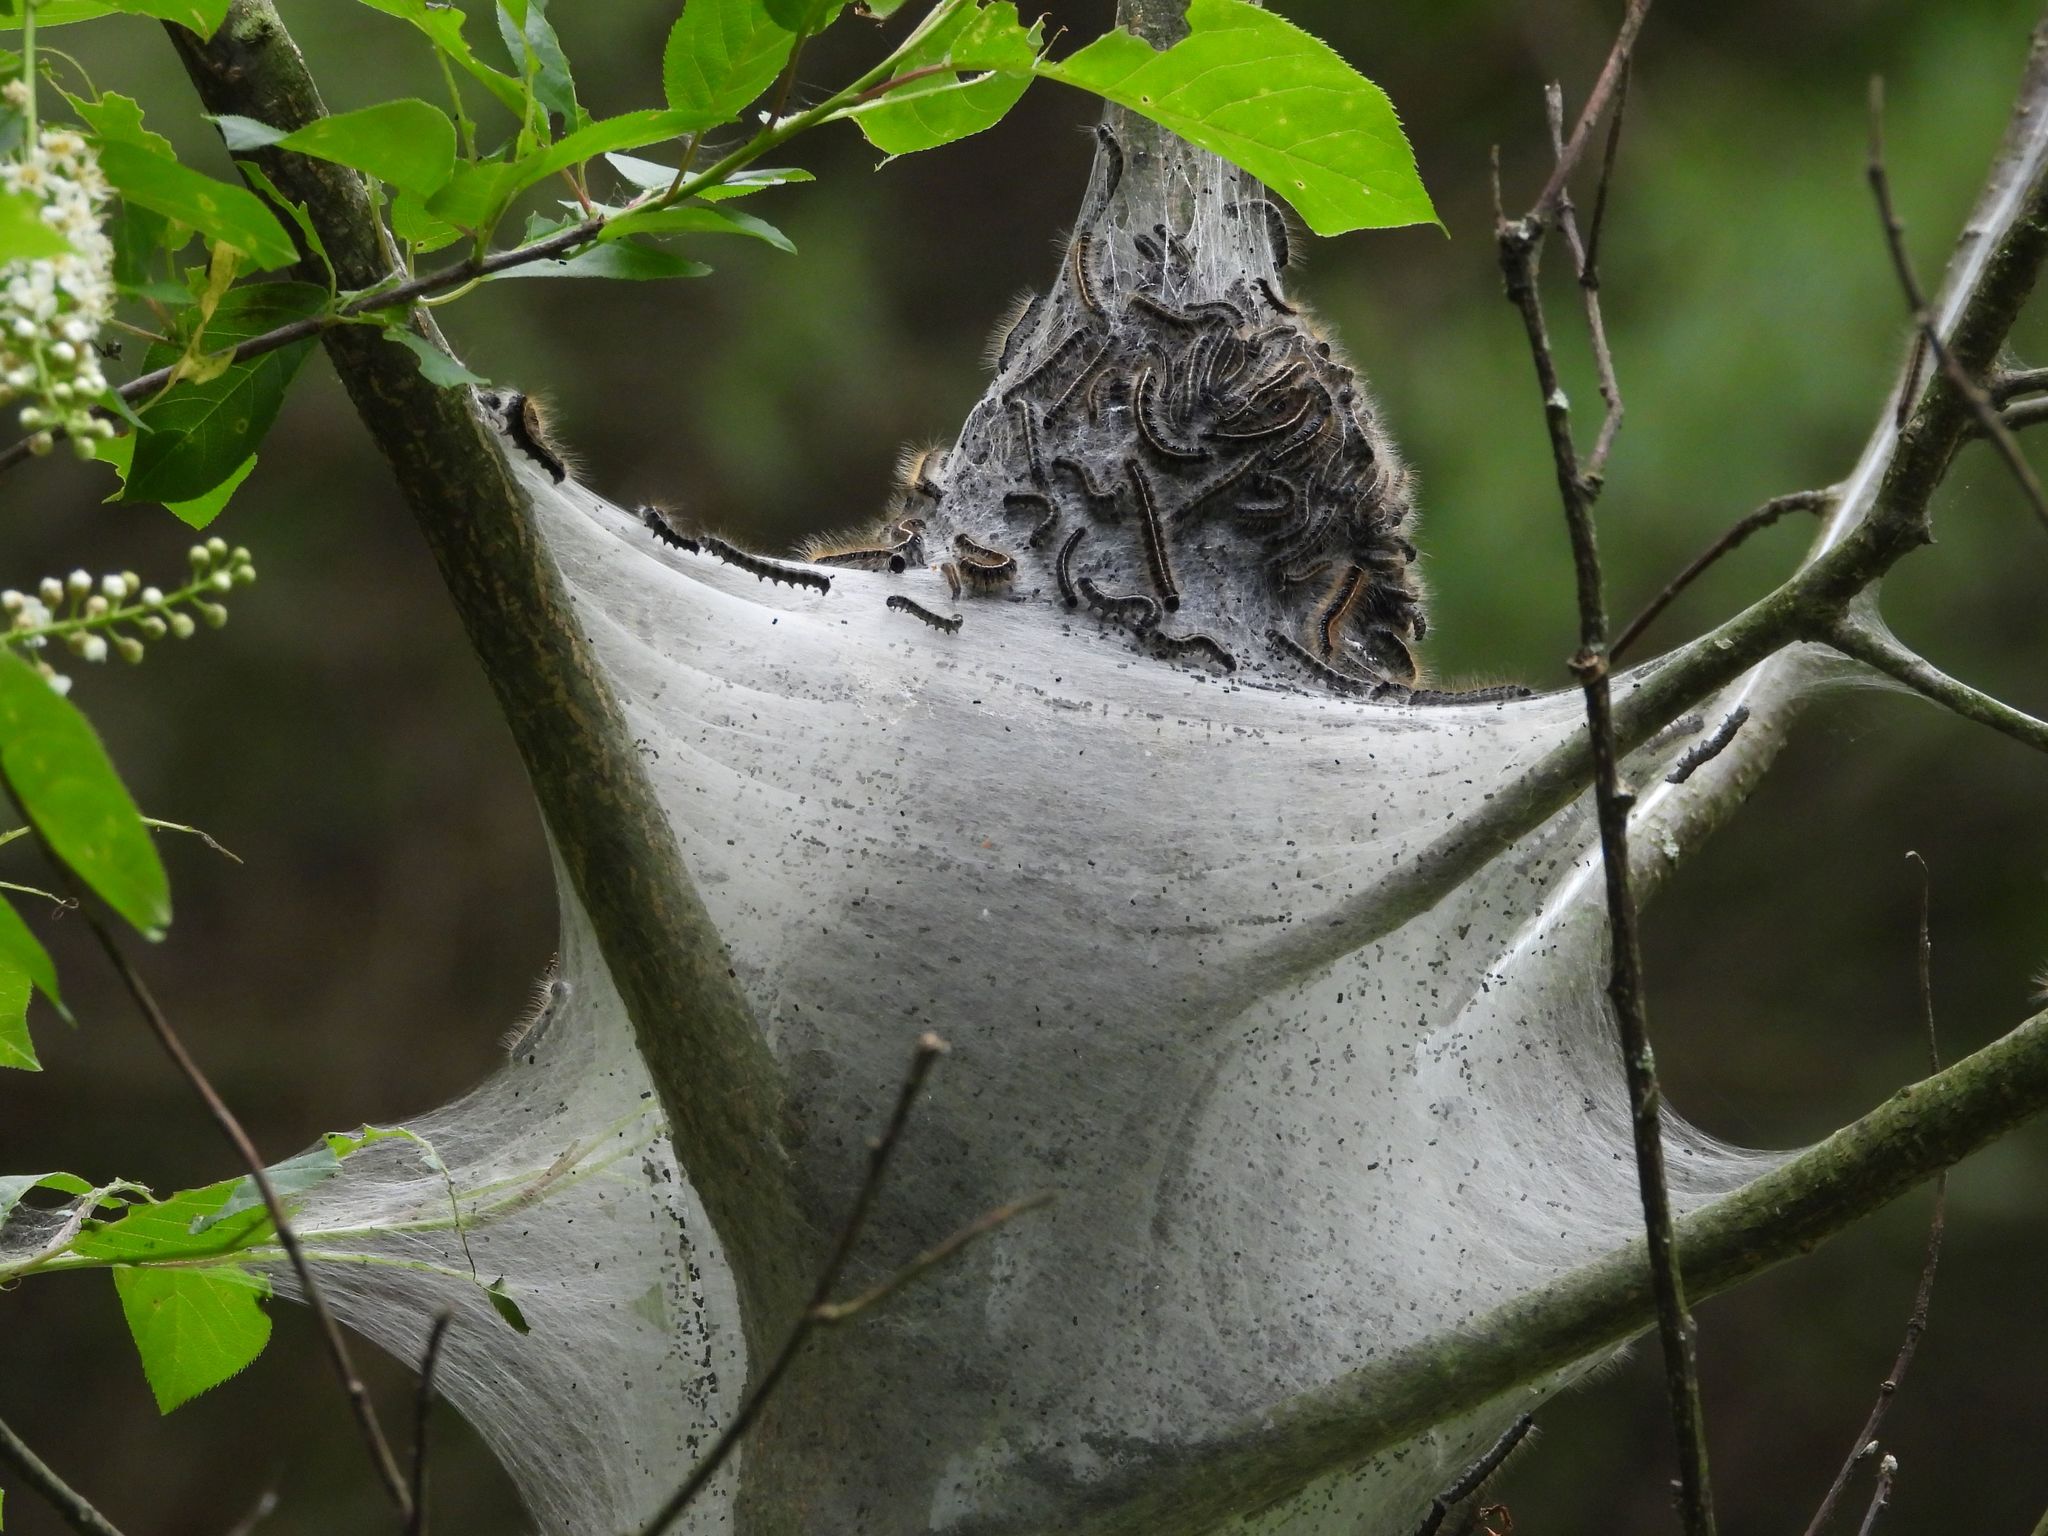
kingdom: Animalia
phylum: Arthropoda
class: Insecta
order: Lepidoptera
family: Lasiocampidae
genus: Malacosoma
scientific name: Malacosoma americana
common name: Eastern tent caterpillar moth
